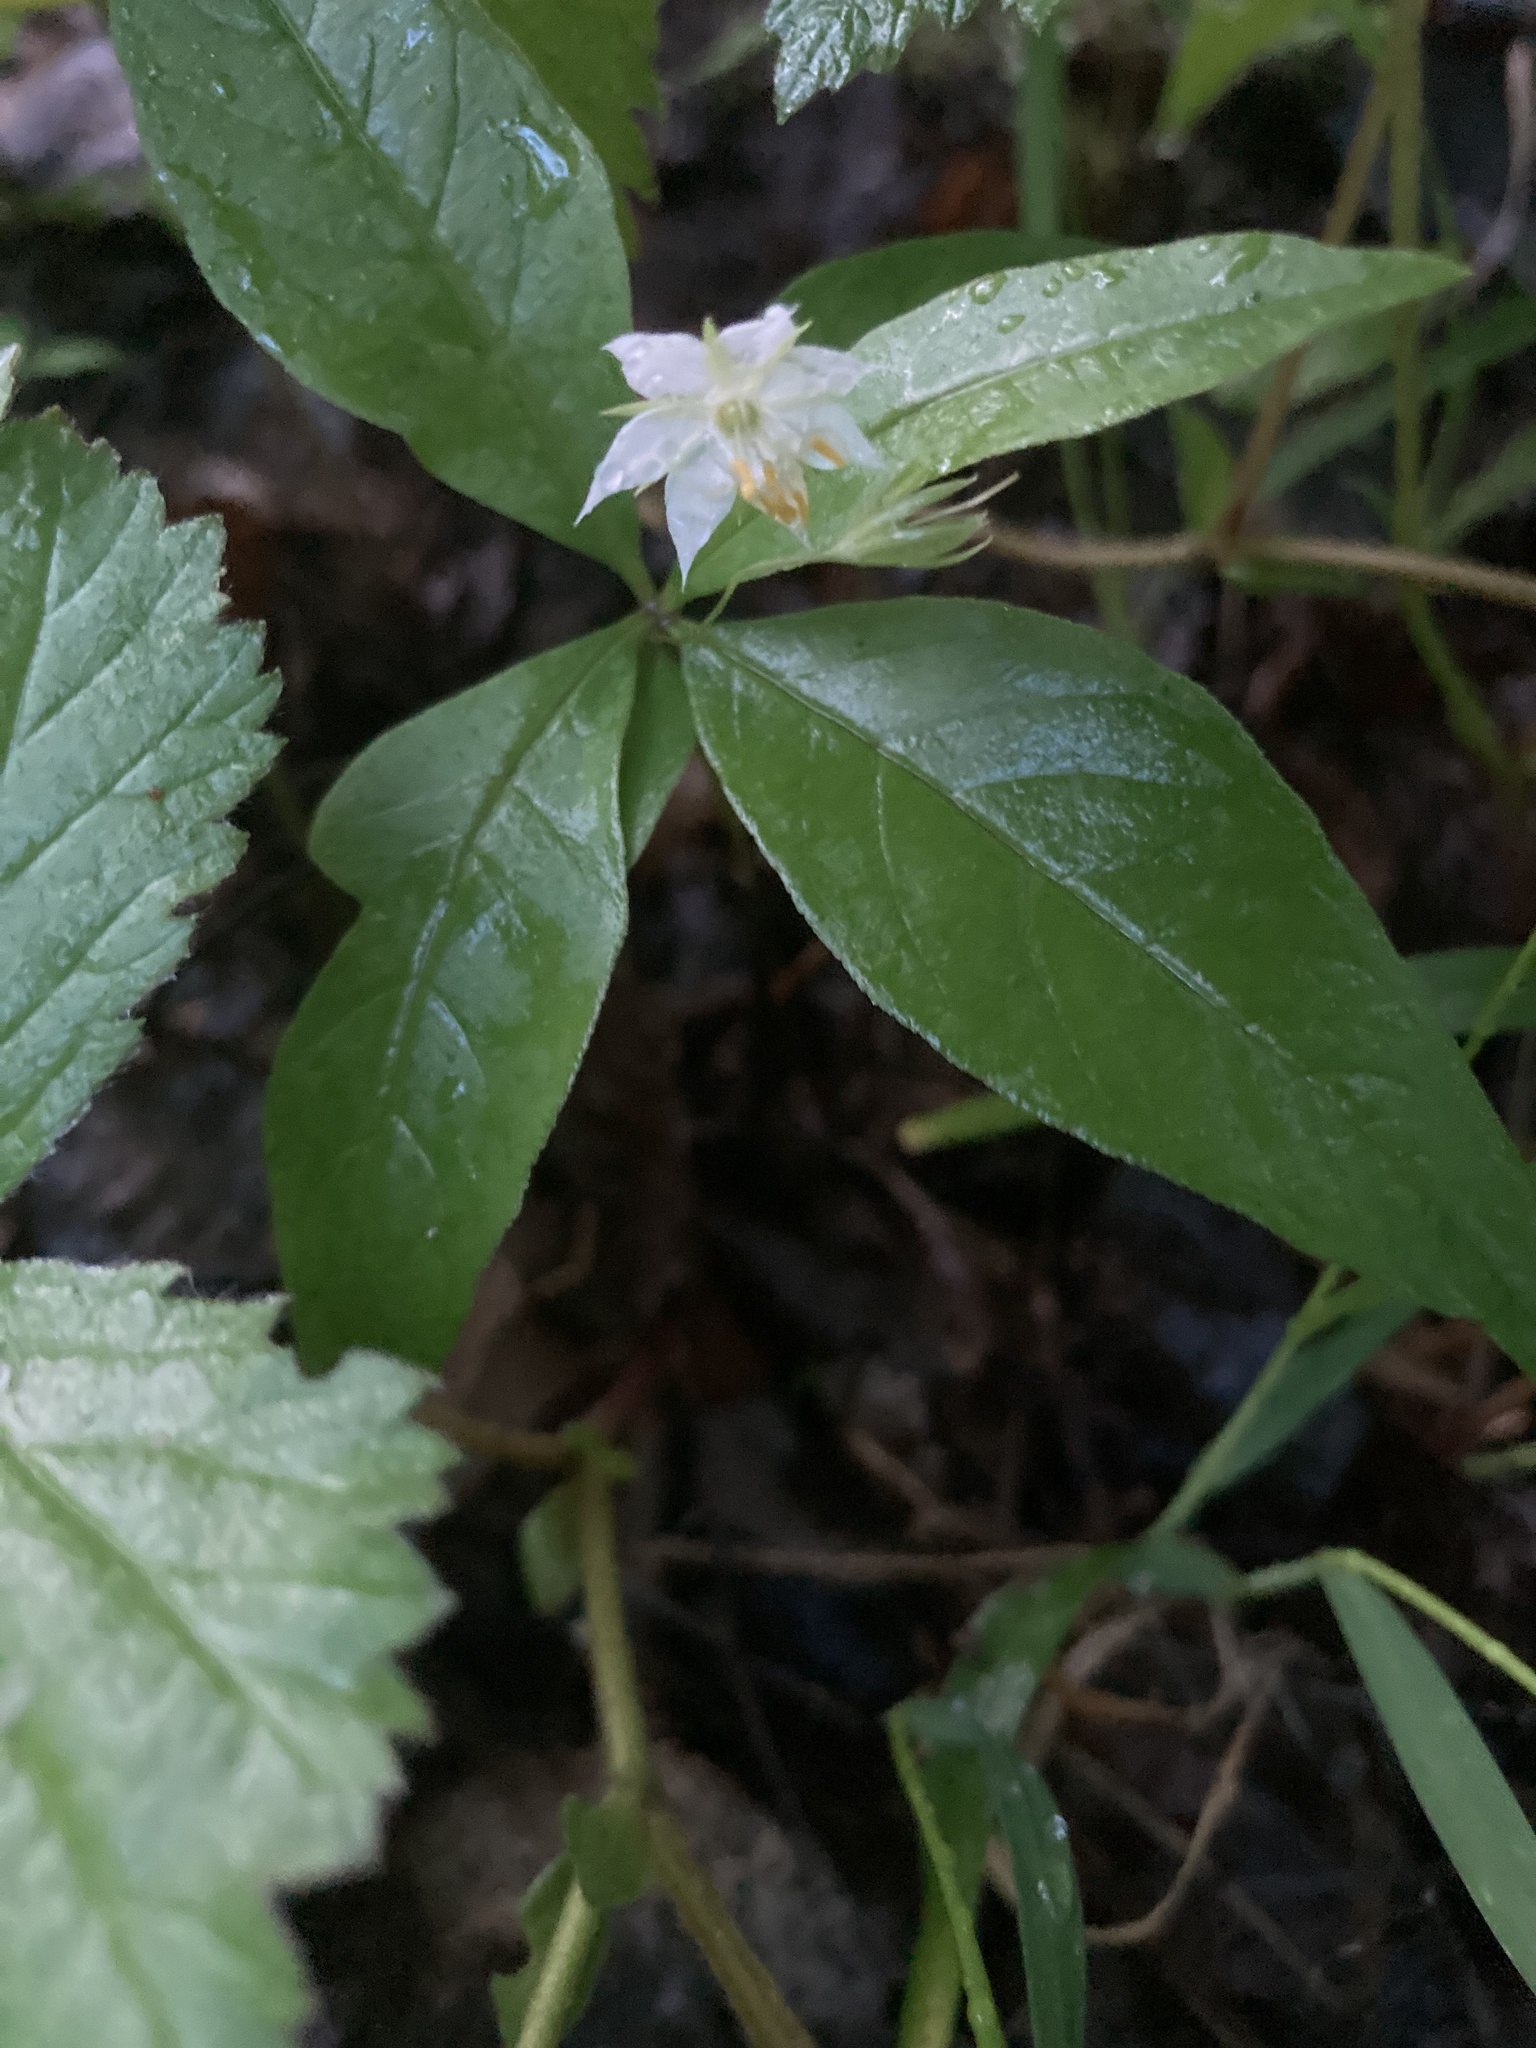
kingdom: Plantae
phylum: Tracheophyta
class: Magnoliopsida
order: Ericales
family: Primulaceae
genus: Lysimachia
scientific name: Lysimachia borealis
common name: American starflower
